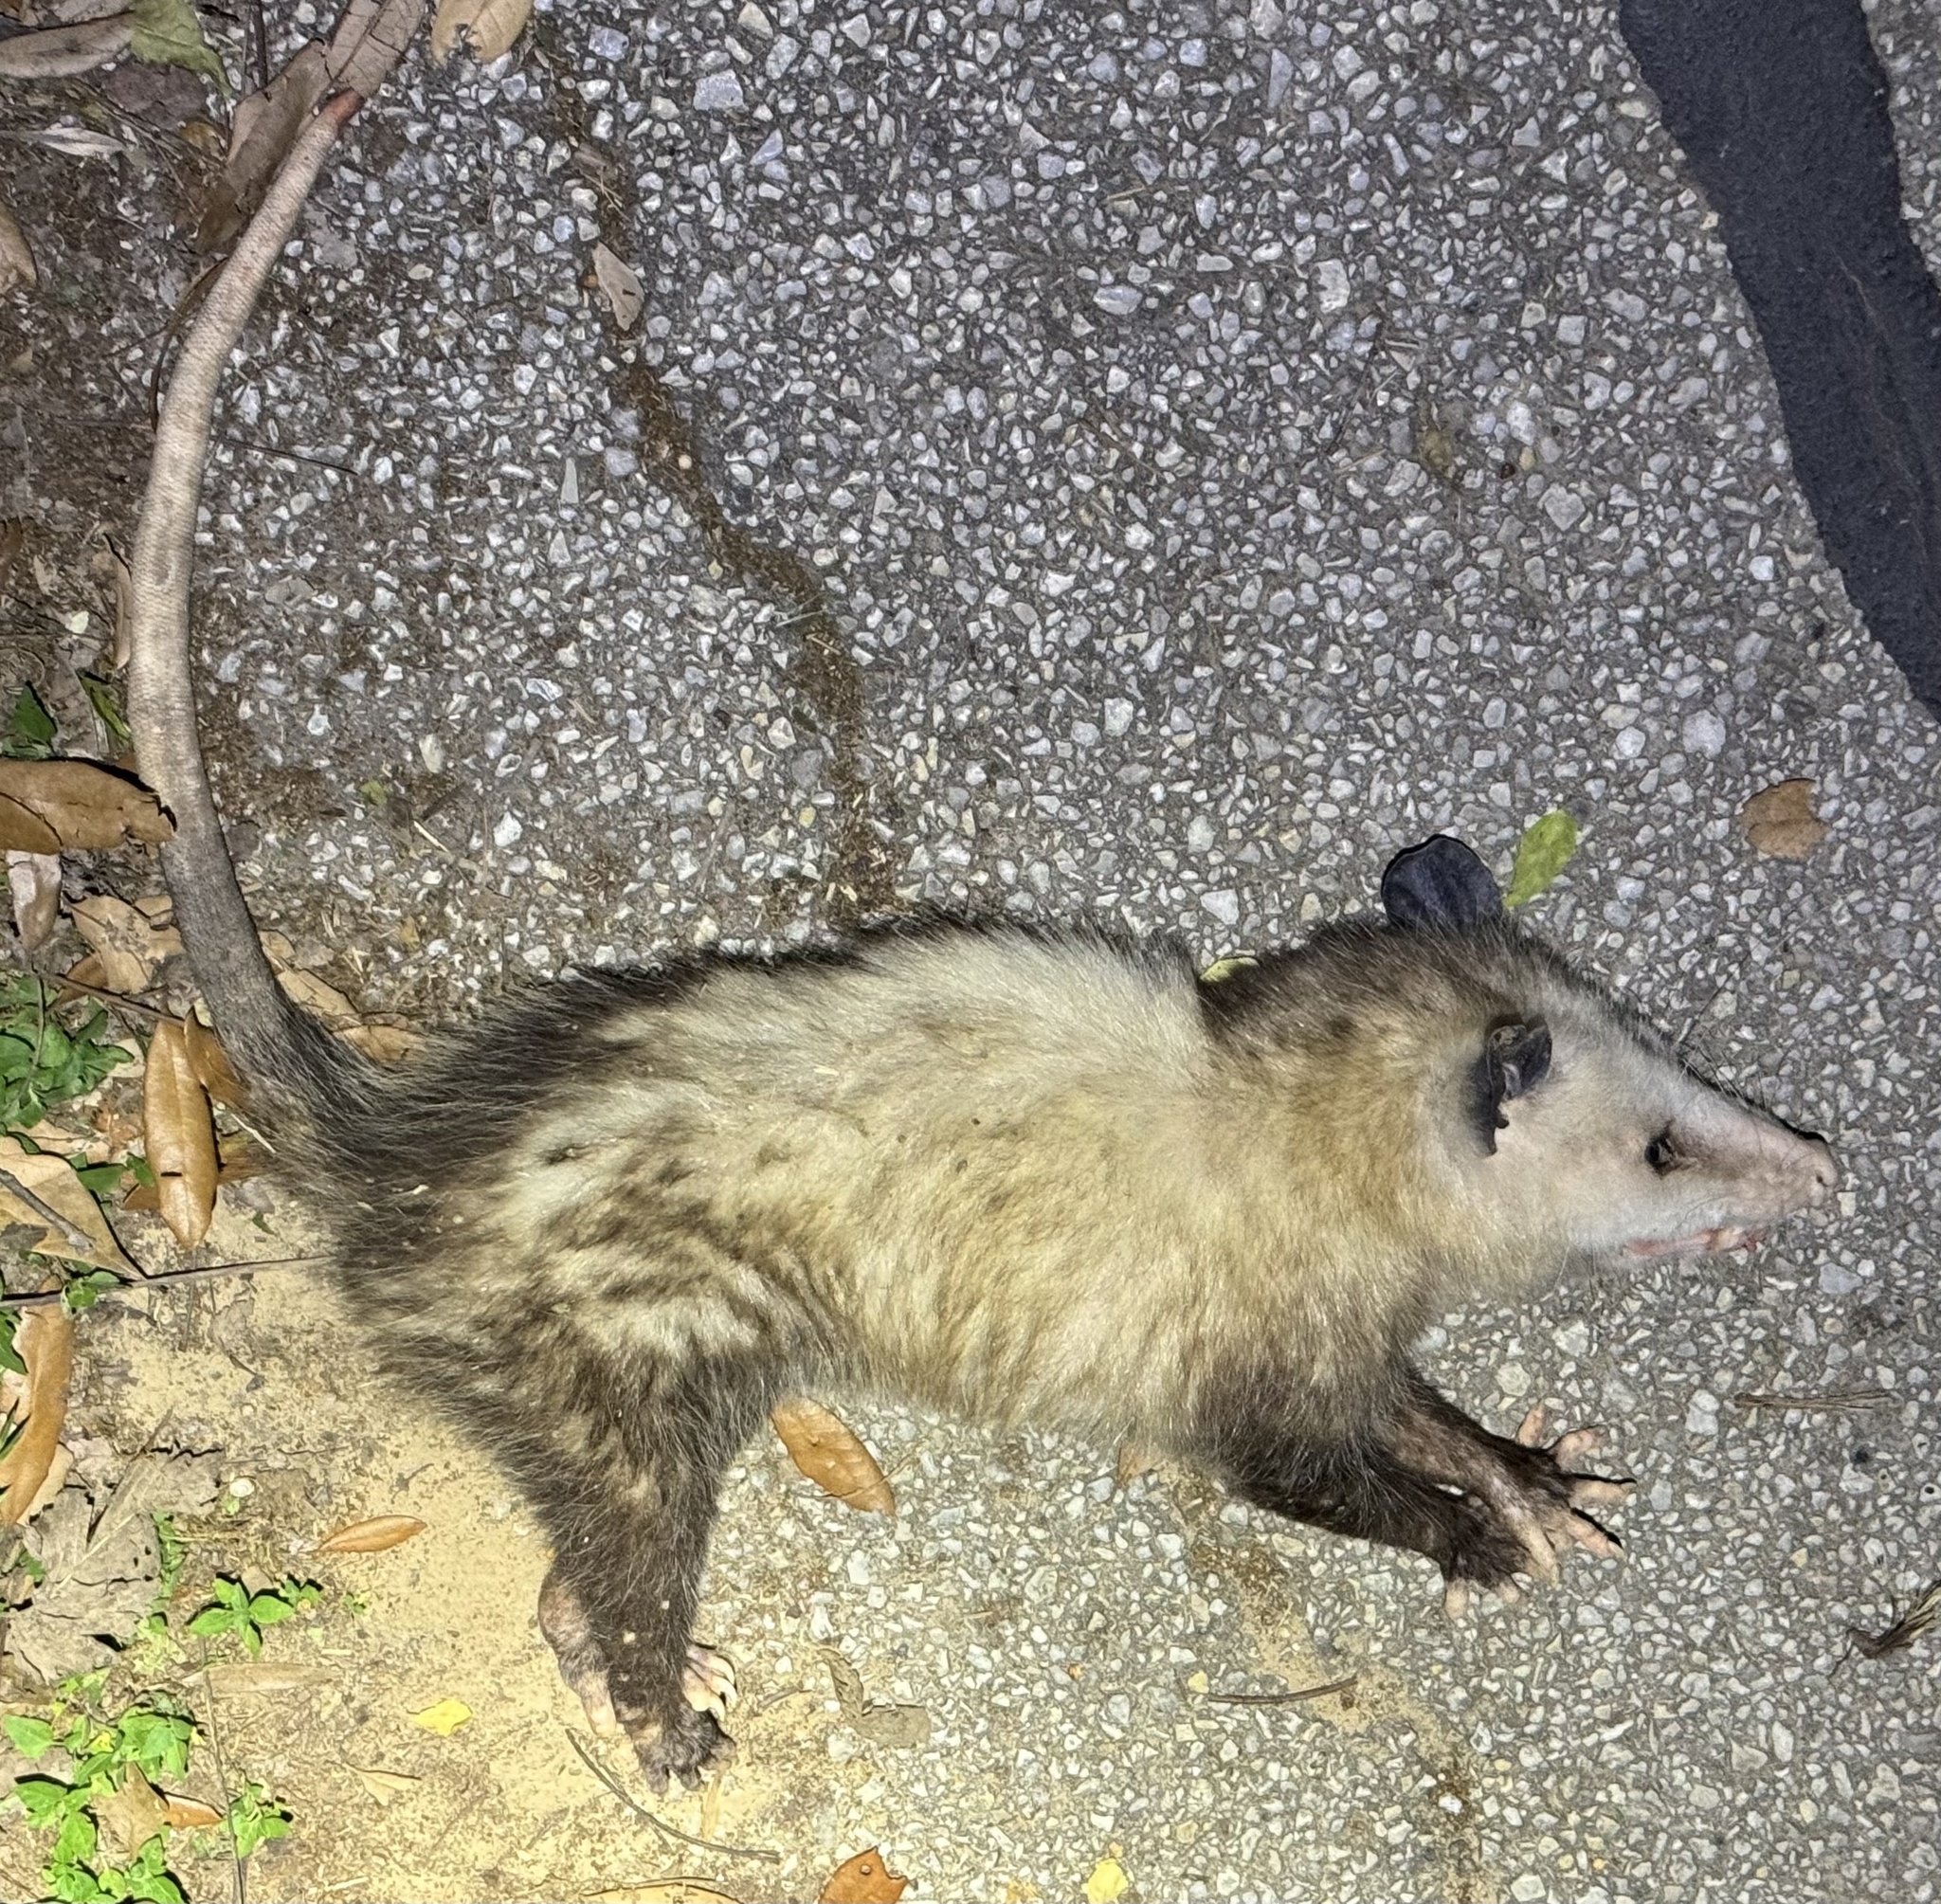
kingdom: Animalia
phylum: Chordata
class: Mammalia
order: Didelphimorphia
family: Didelphidae
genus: Didelphis
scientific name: Didelphis virginiana
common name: Virginia opossum
